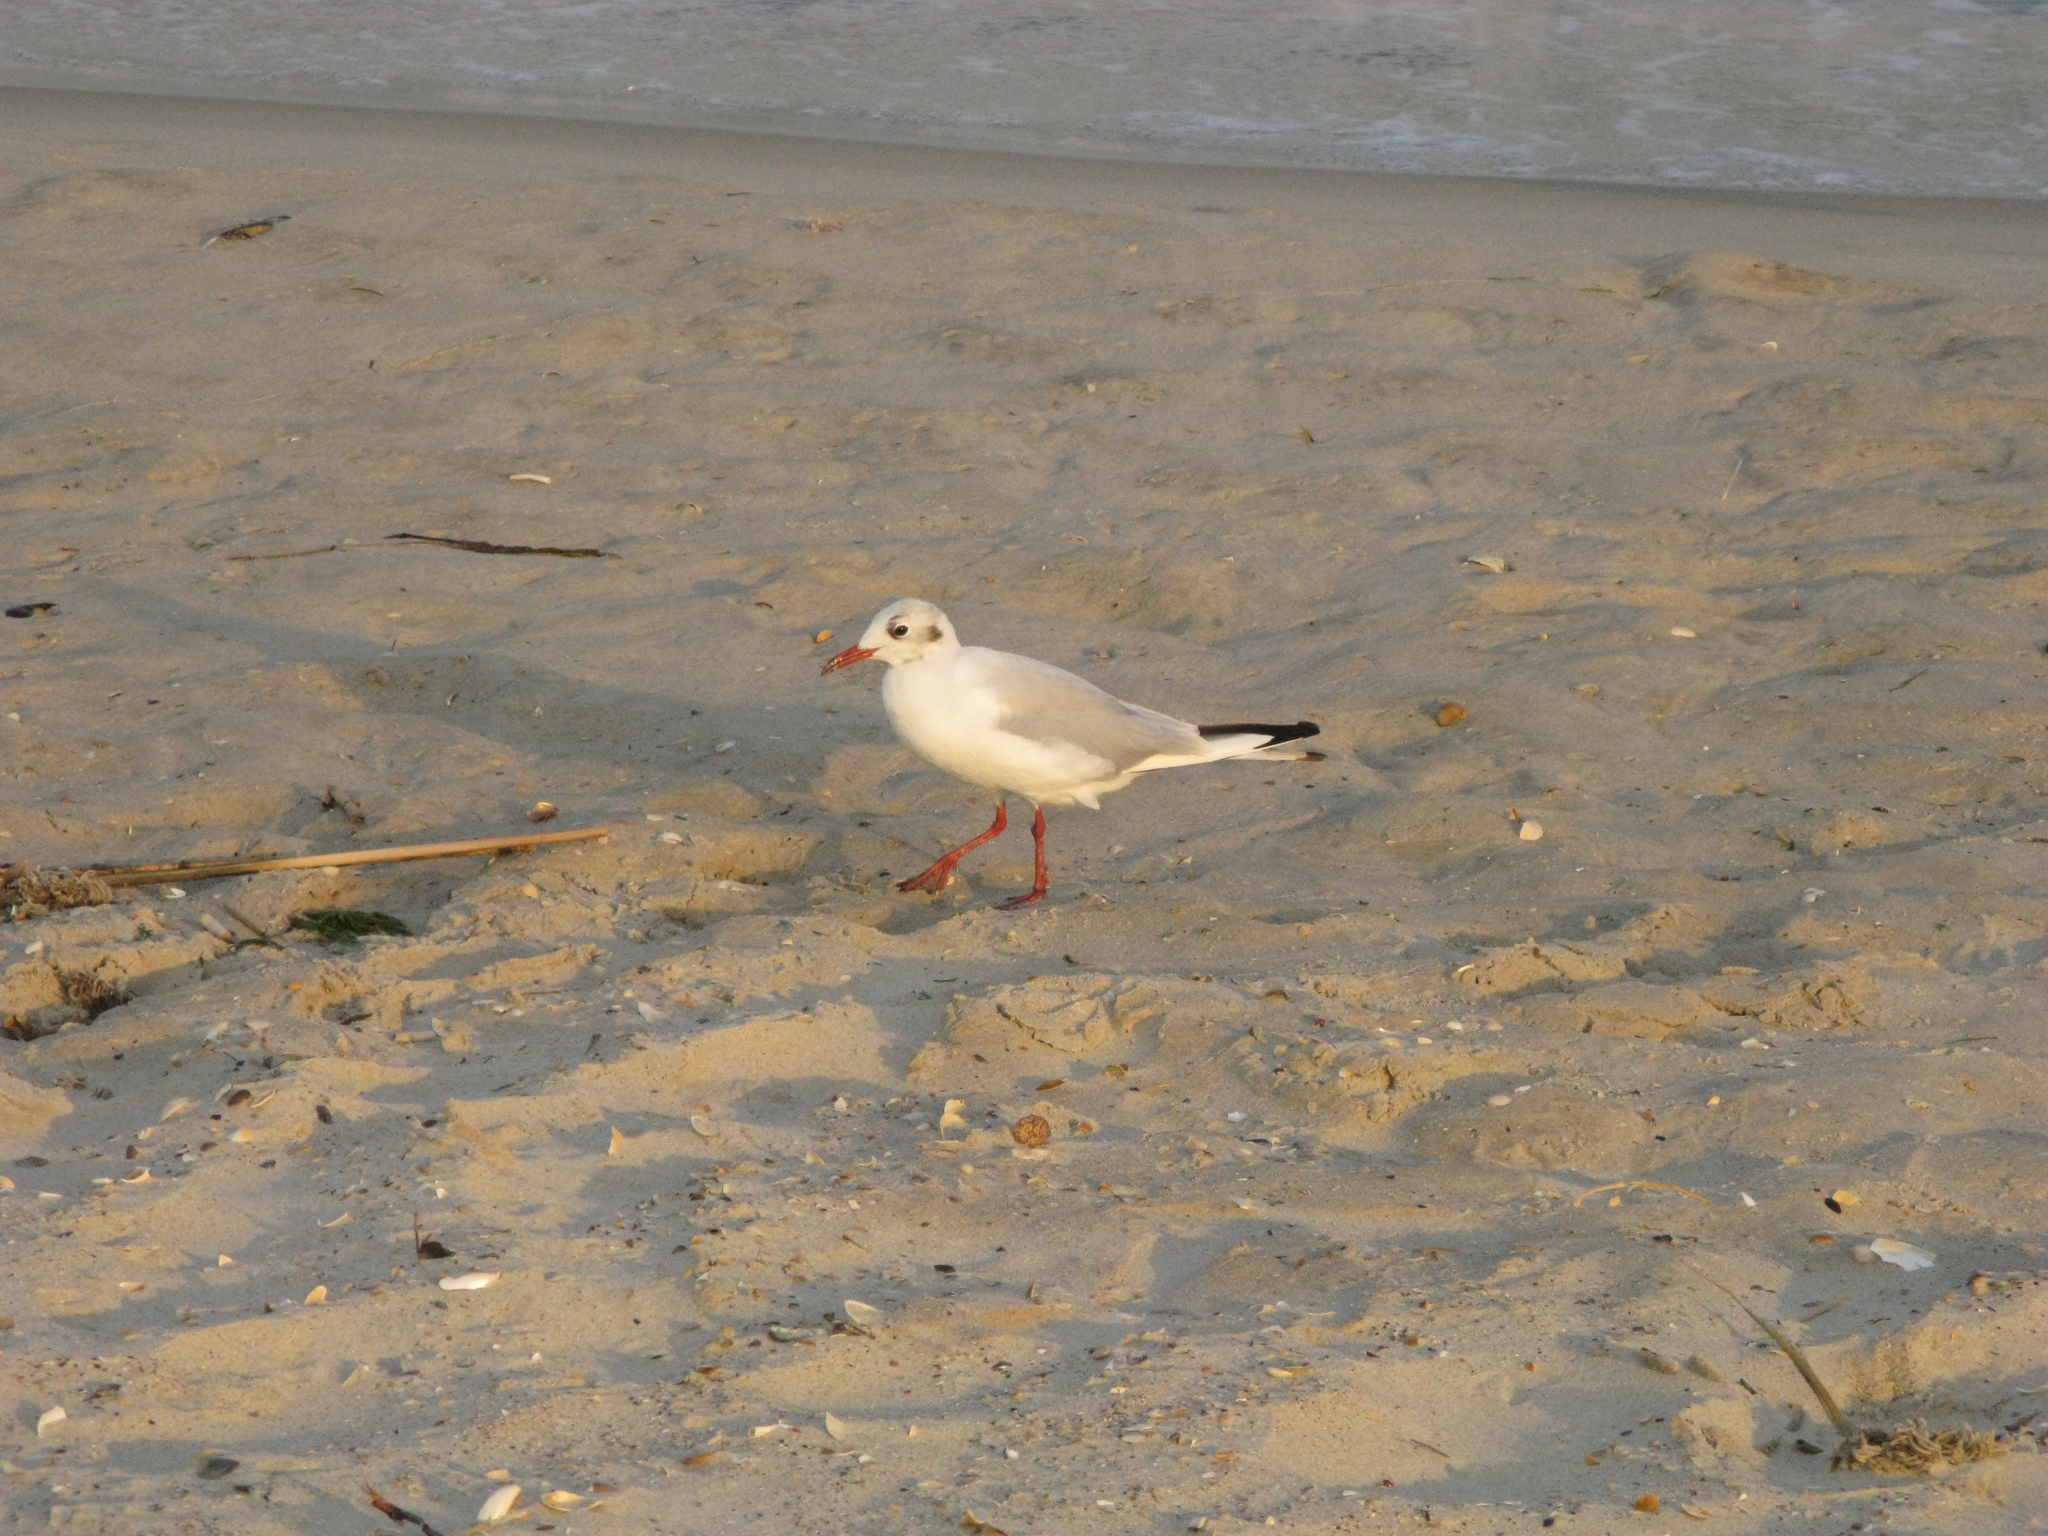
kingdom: Animalia
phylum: Chordata
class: Aves
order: Charadriiformes
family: Laridae
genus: Chroicocephalus
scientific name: Chroicocephalus ridibundus
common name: Black-headed gull
